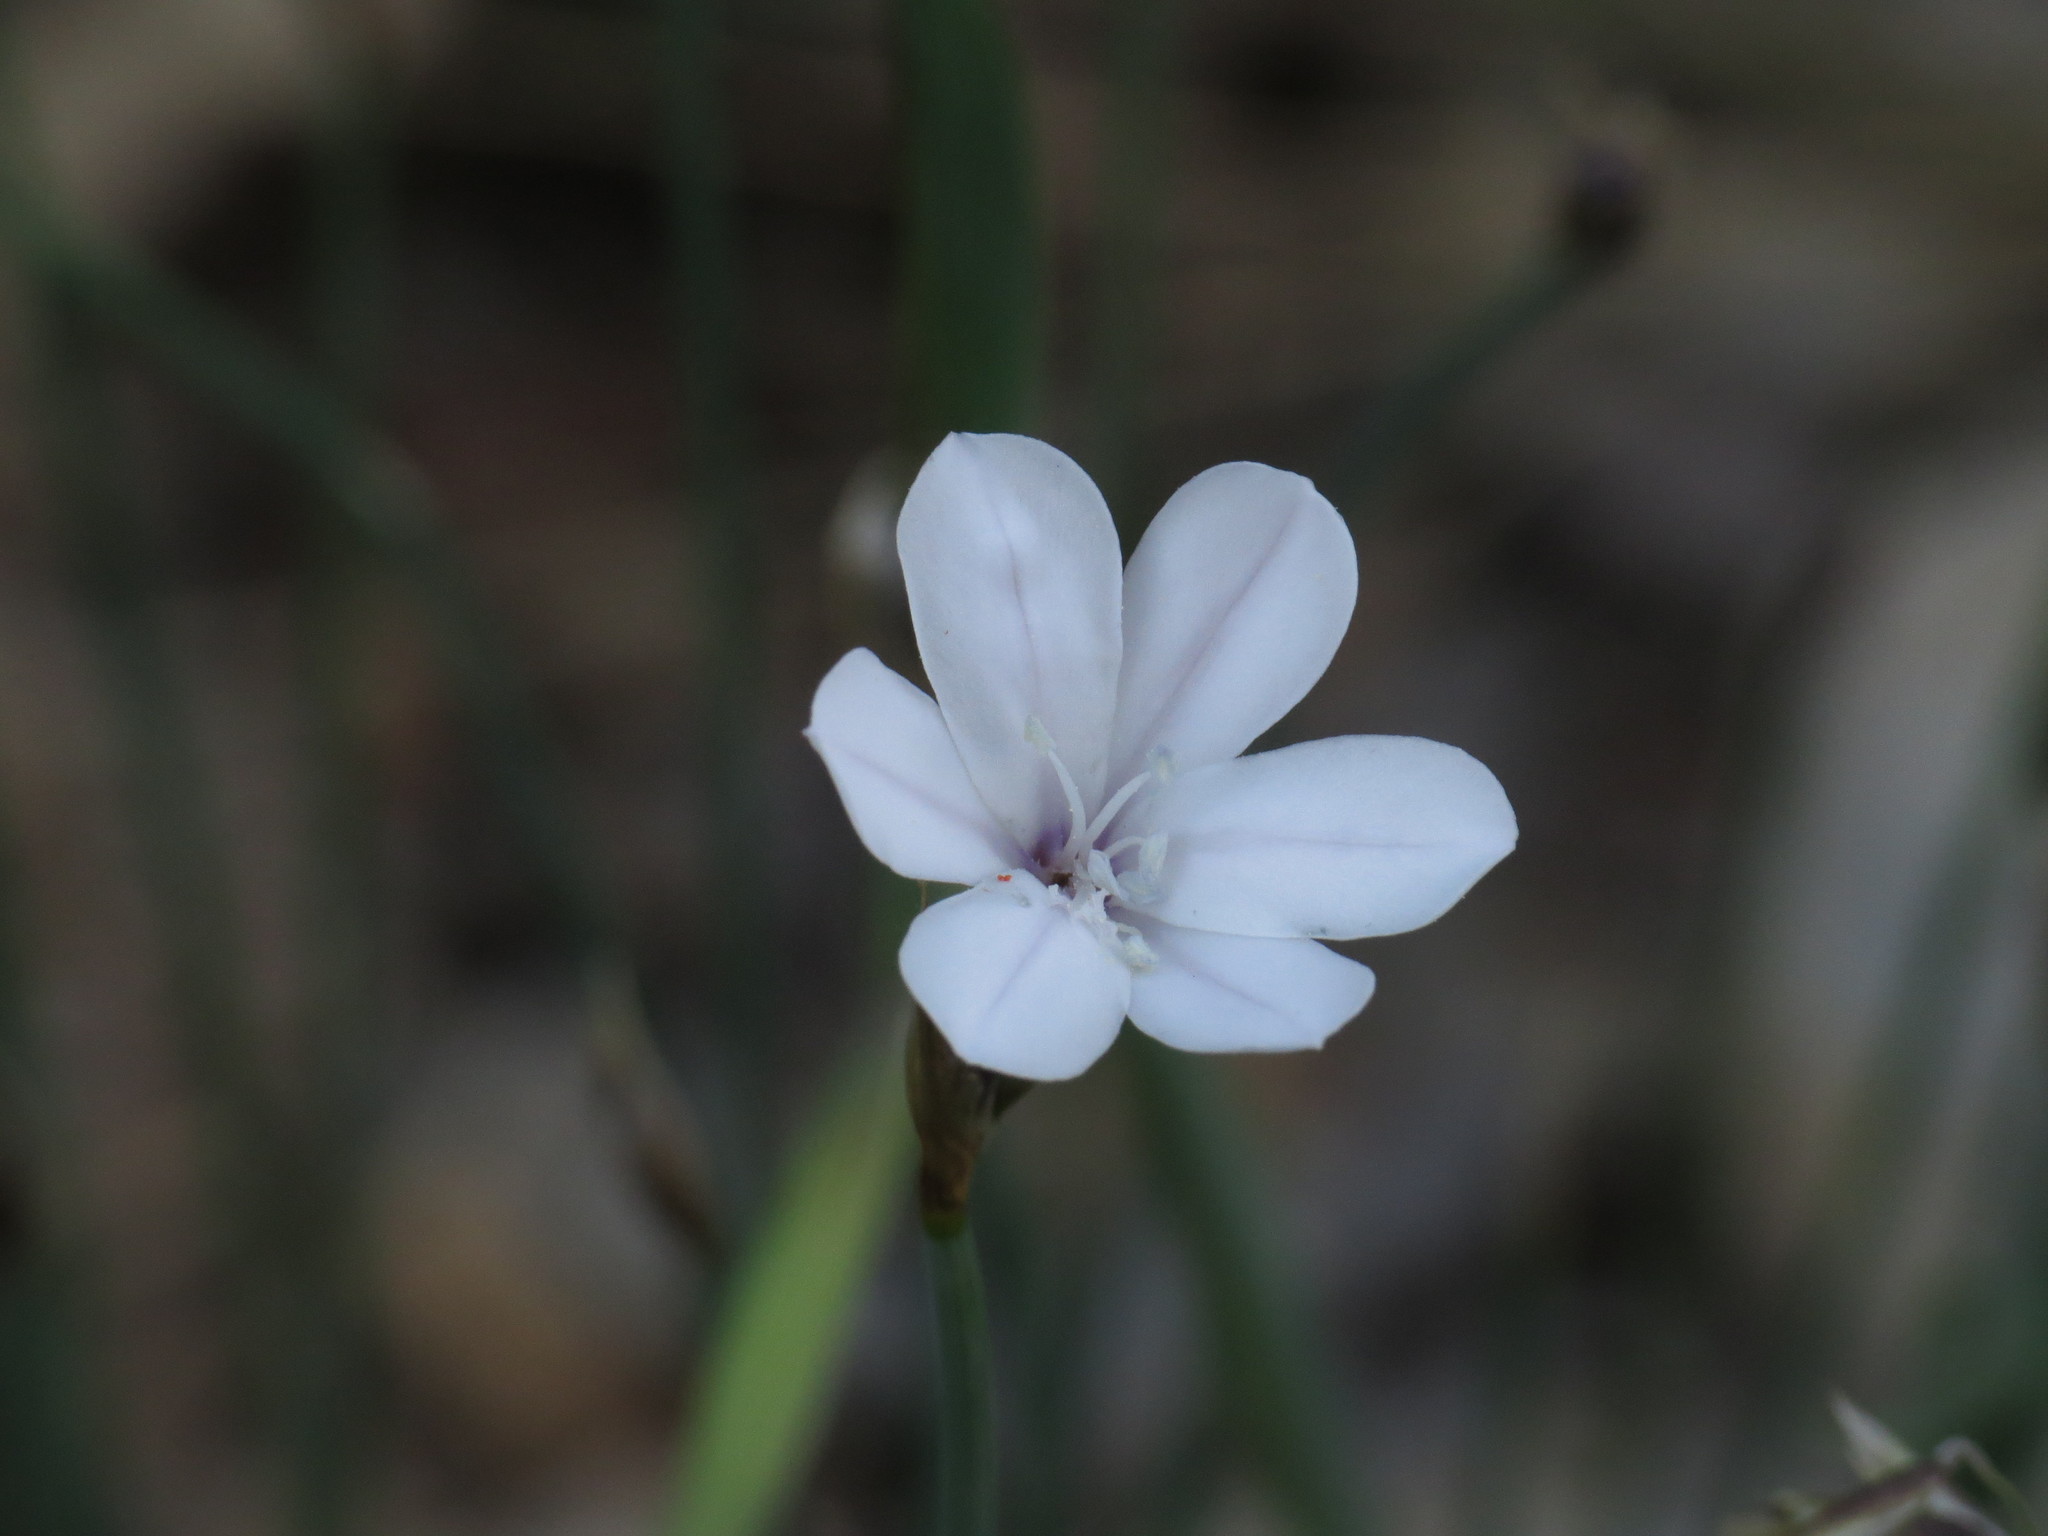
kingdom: Plantae
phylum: Tracheophyta
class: Liliopsida
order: Asparagales
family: Asparagaceae
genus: Aphyllanthes
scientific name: Aphyllanthes monspeliensis
